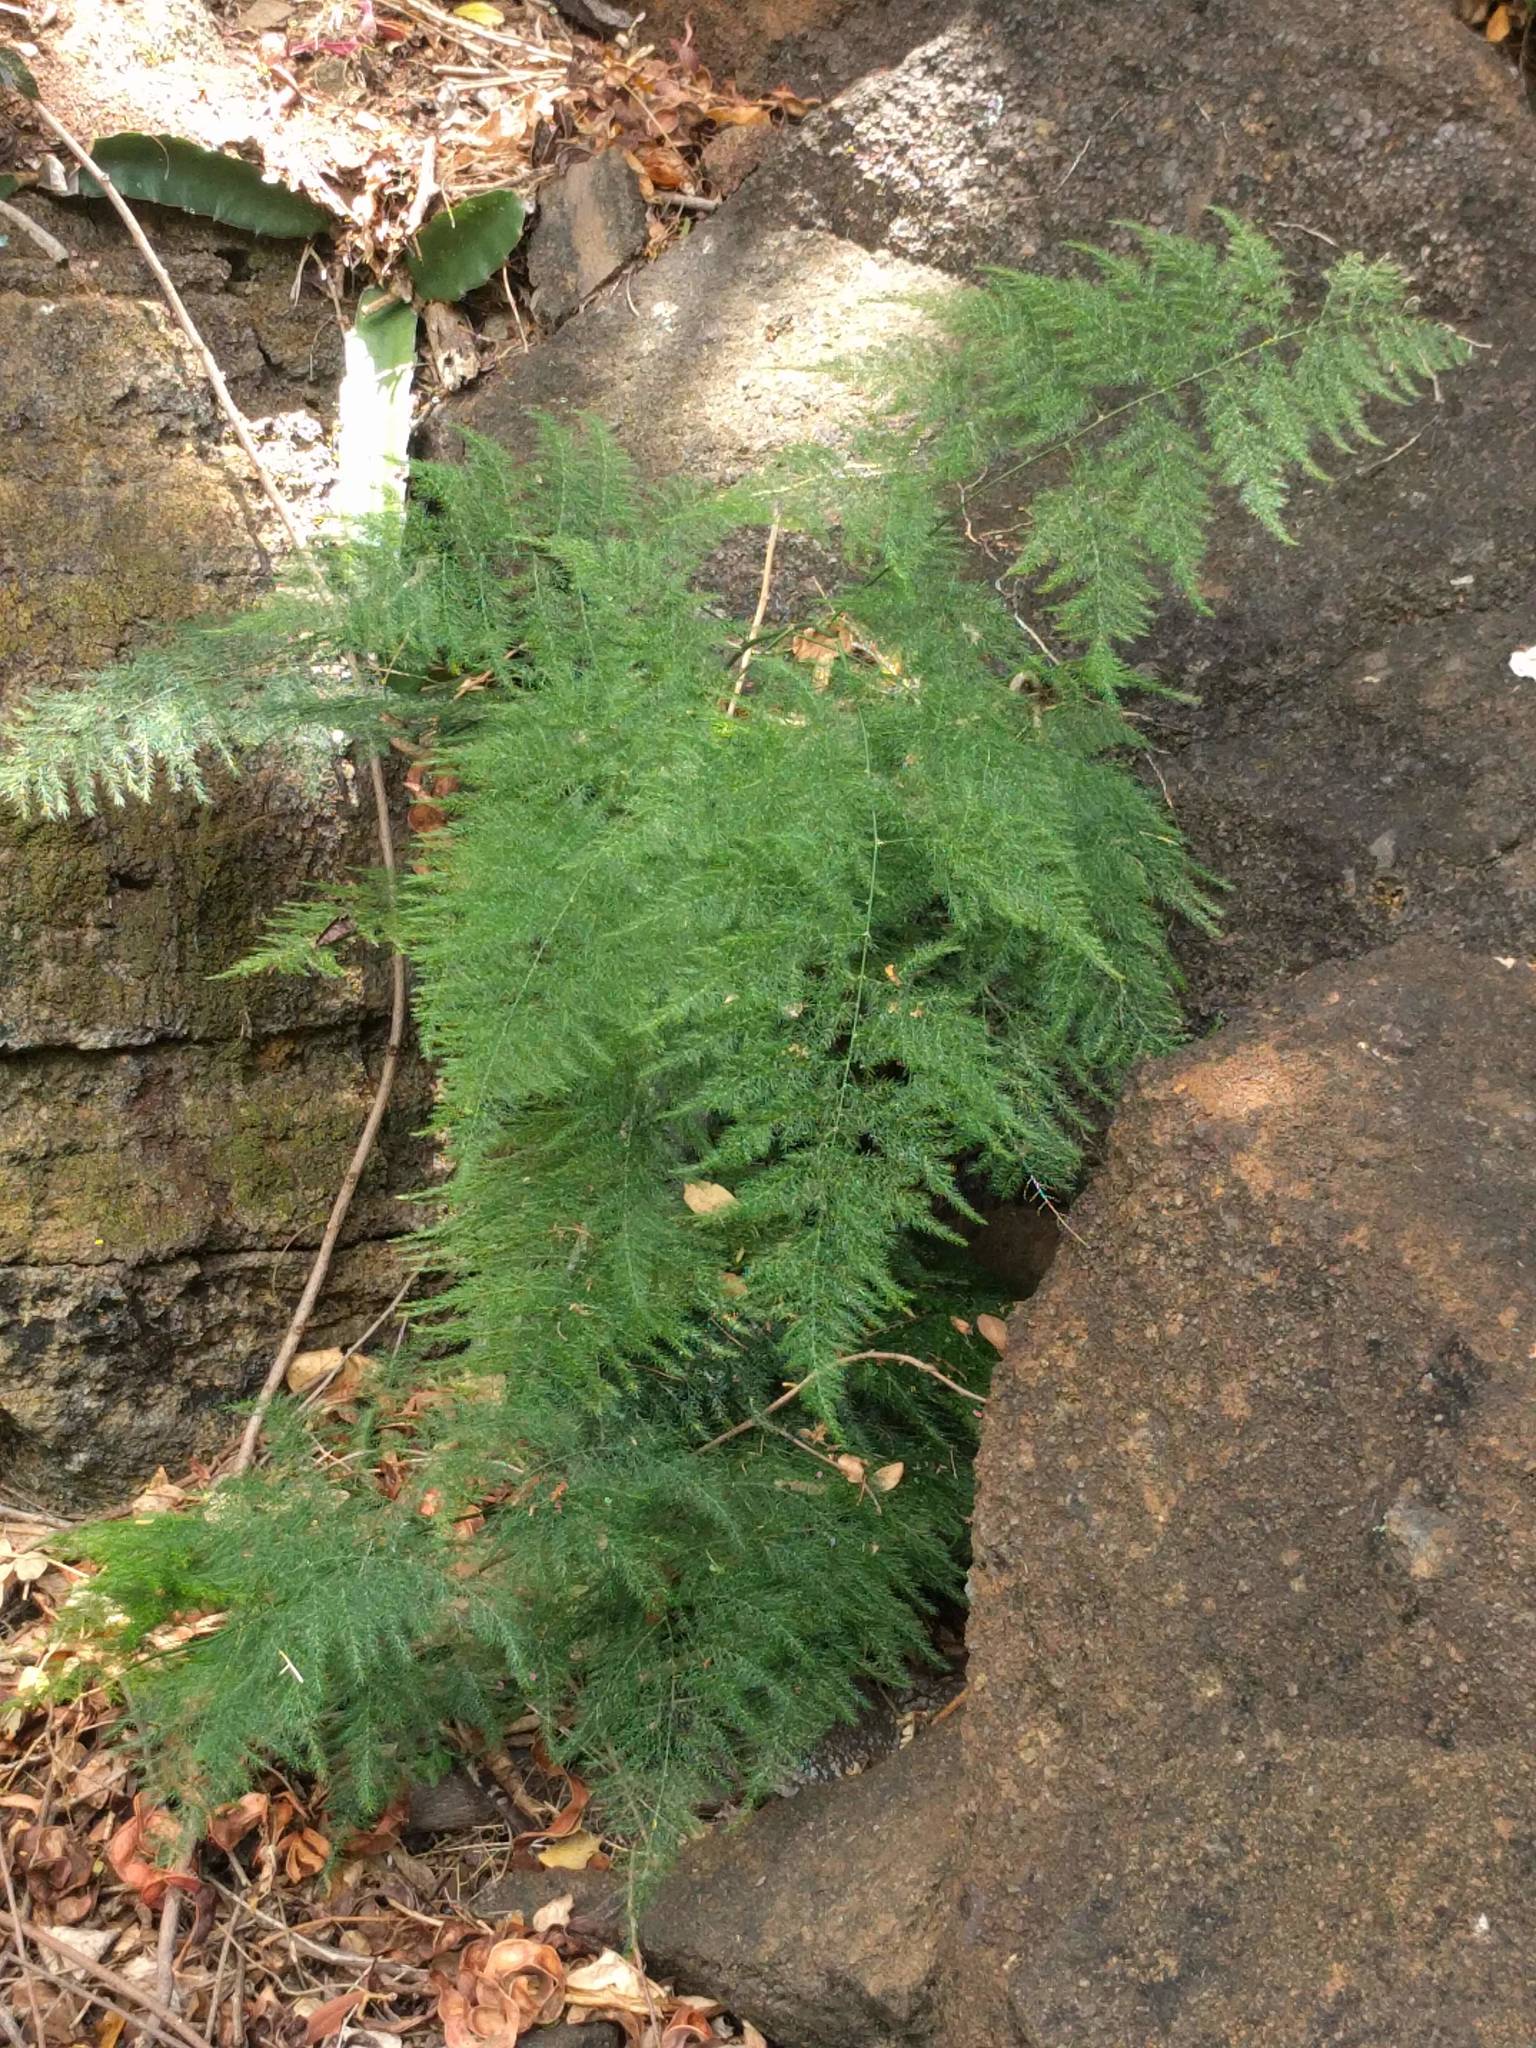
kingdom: Plantae
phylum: Tracheophyta
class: Liliopsida
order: Asparagales
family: Asparagaceae
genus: Asparagus
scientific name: Asparagus setaceus
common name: Common asparagus fern
